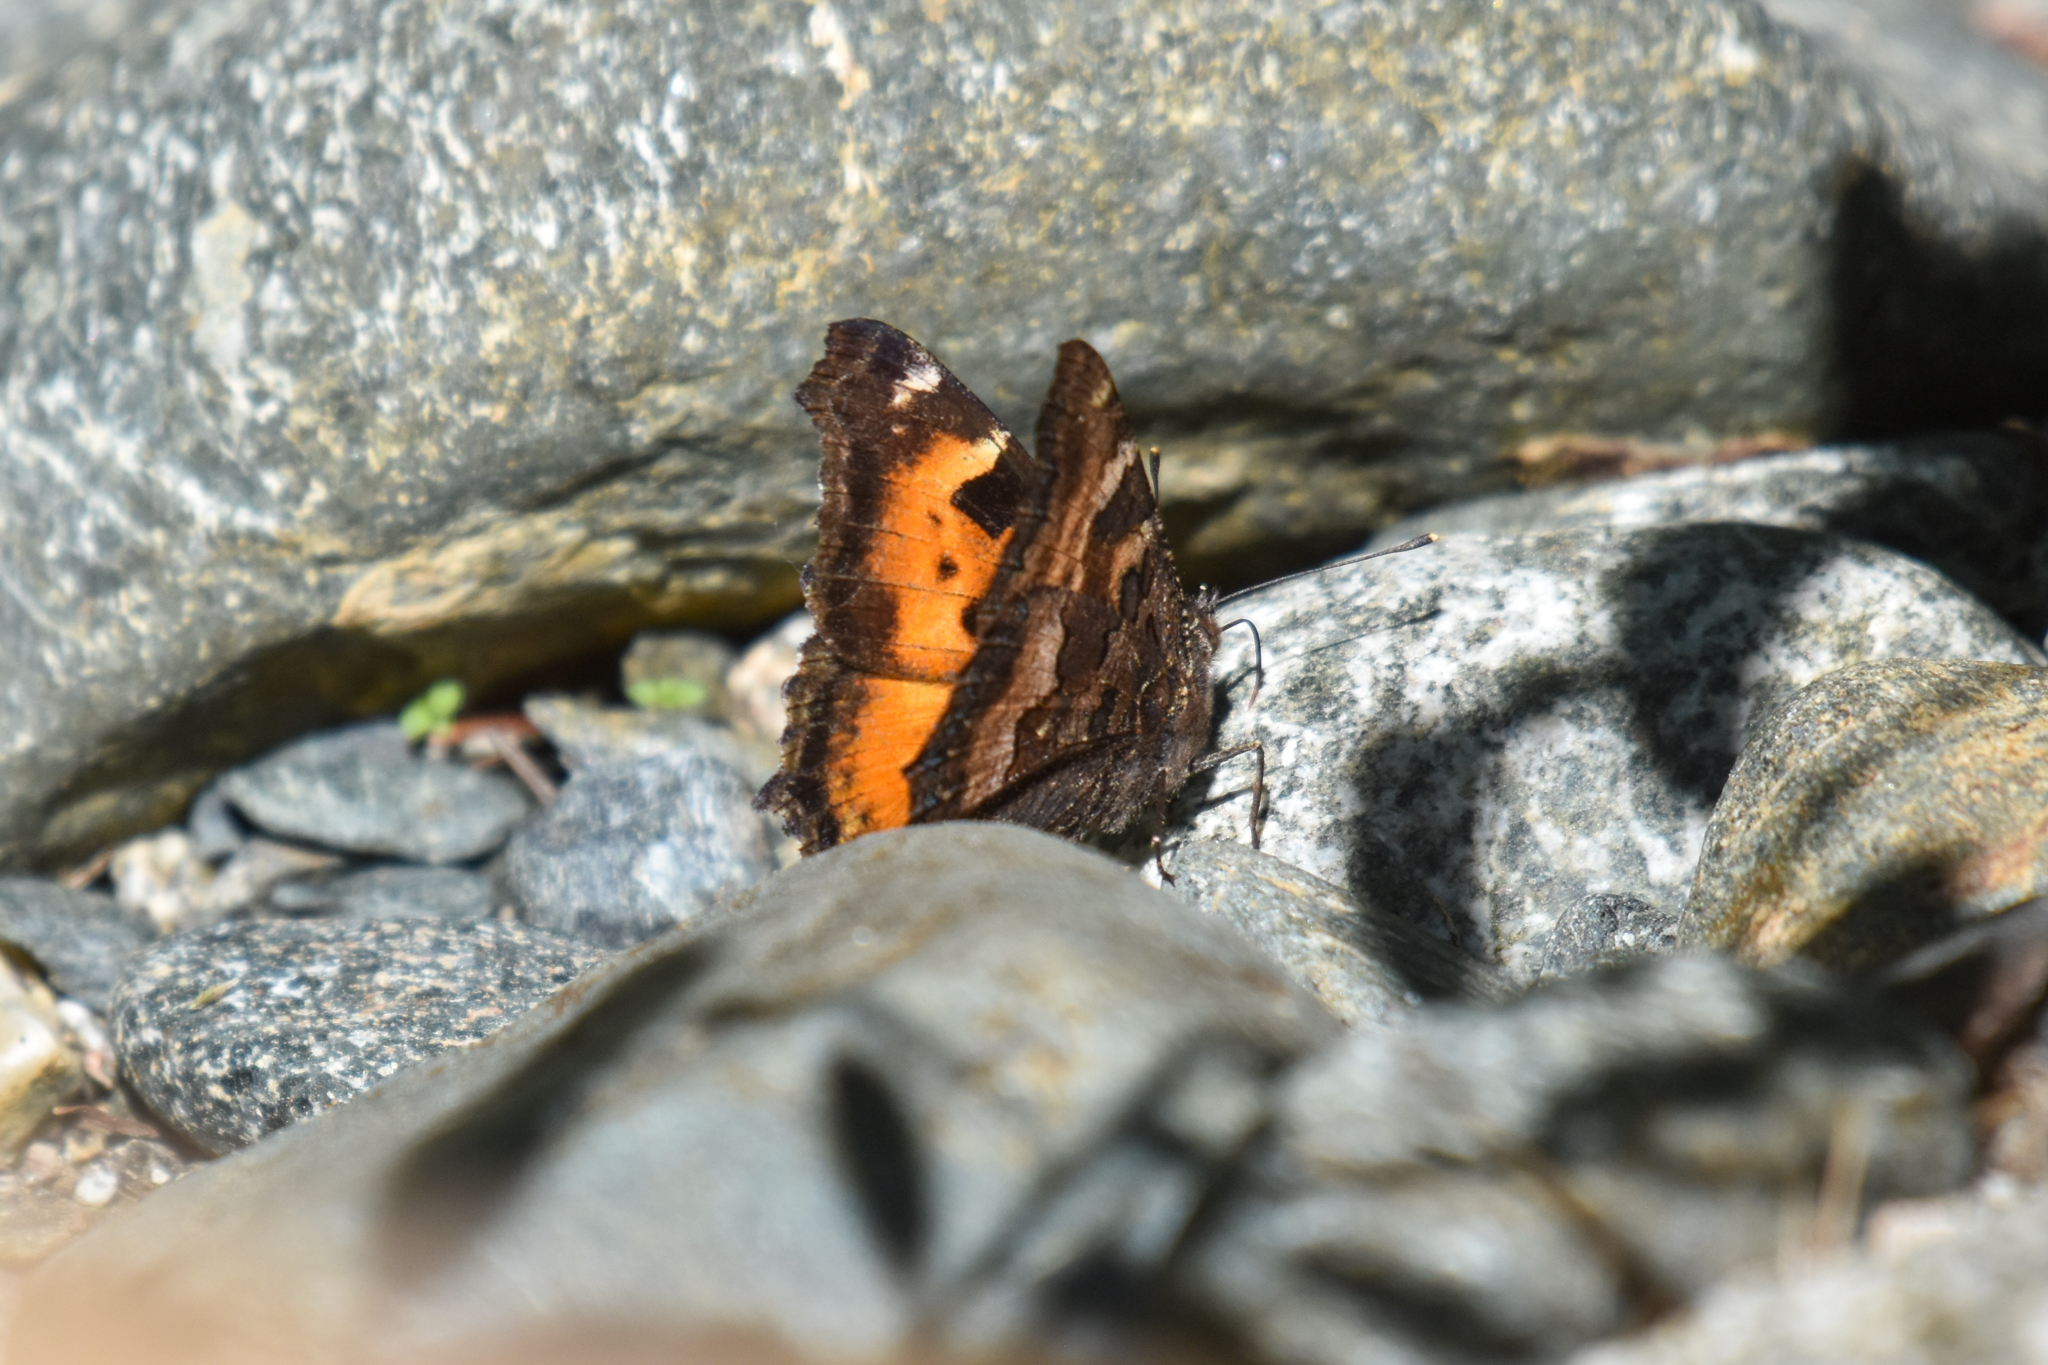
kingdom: Animalia
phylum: Arthropoda
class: Insecta
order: Lepidoptera
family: Nymphalidae
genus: Nymphalis
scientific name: Nymphalis californica
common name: California tortoiseshell
